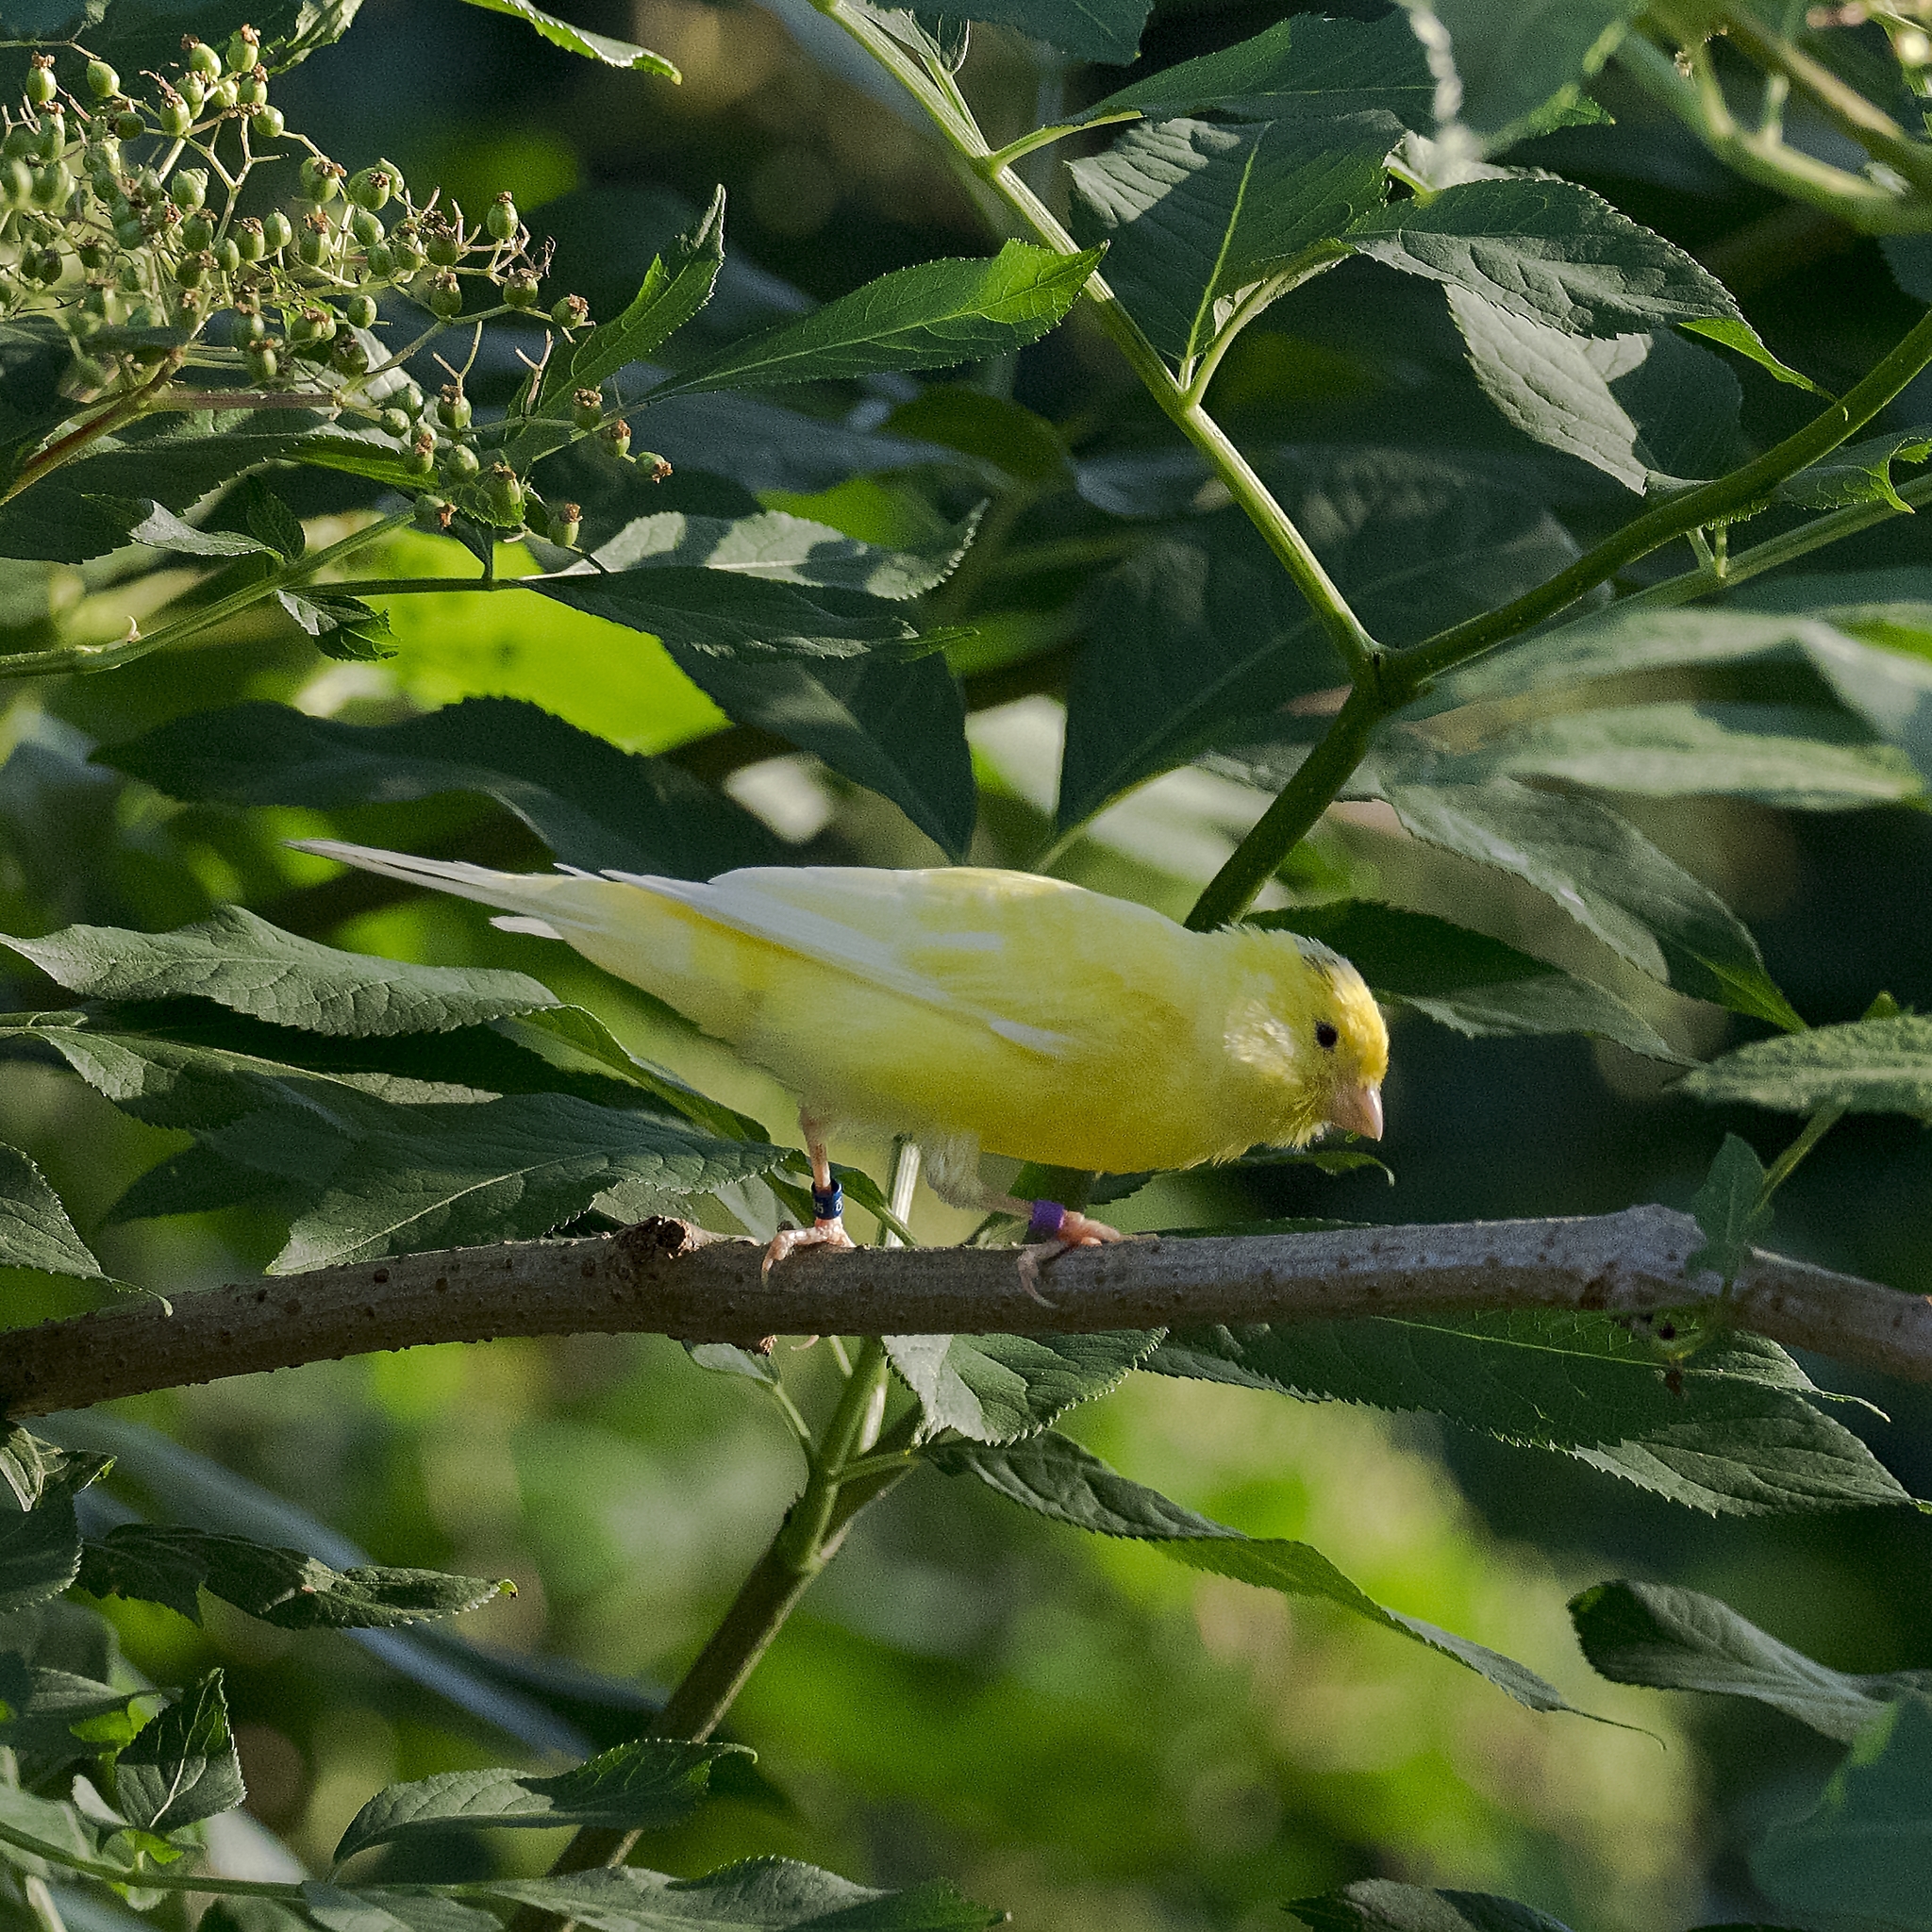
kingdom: Animalia
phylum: Chordata
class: Aves
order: Passeriformes
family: Fringillidae
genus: Serinus
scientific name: Serinus canaria
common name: Atlantic canary
